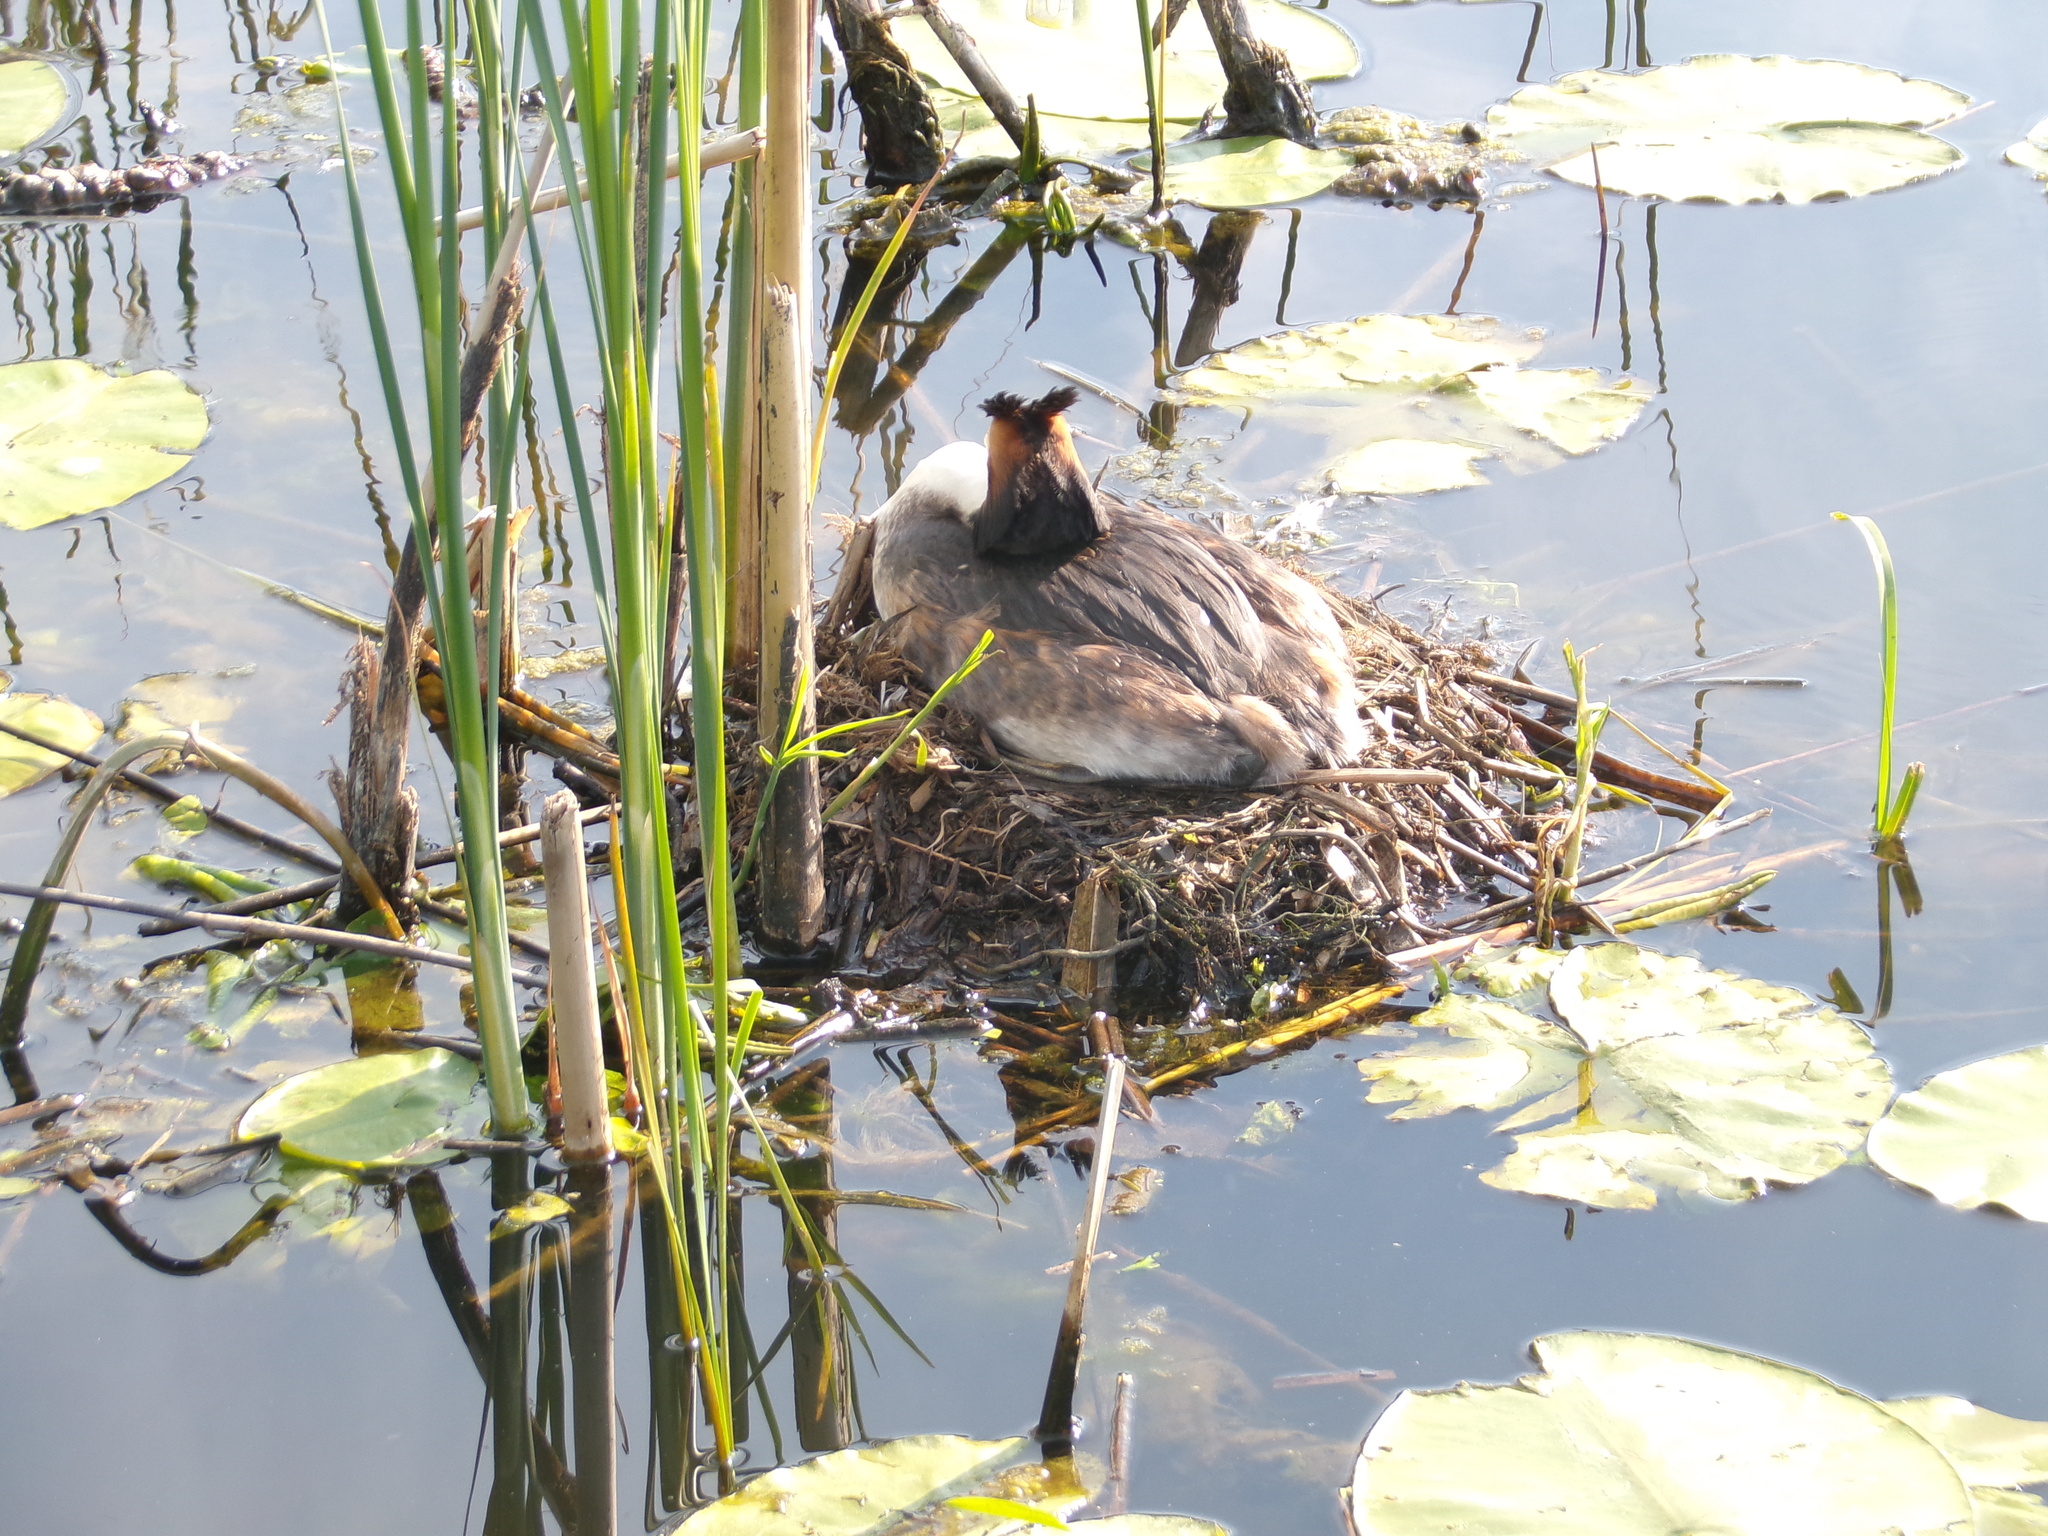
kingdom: Animalia
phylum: Chordata
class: Aves
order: Podicipediformes
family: Podicipedidae
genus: Podiceps
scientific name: Podiceps cristatus
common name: Great crested grebe
